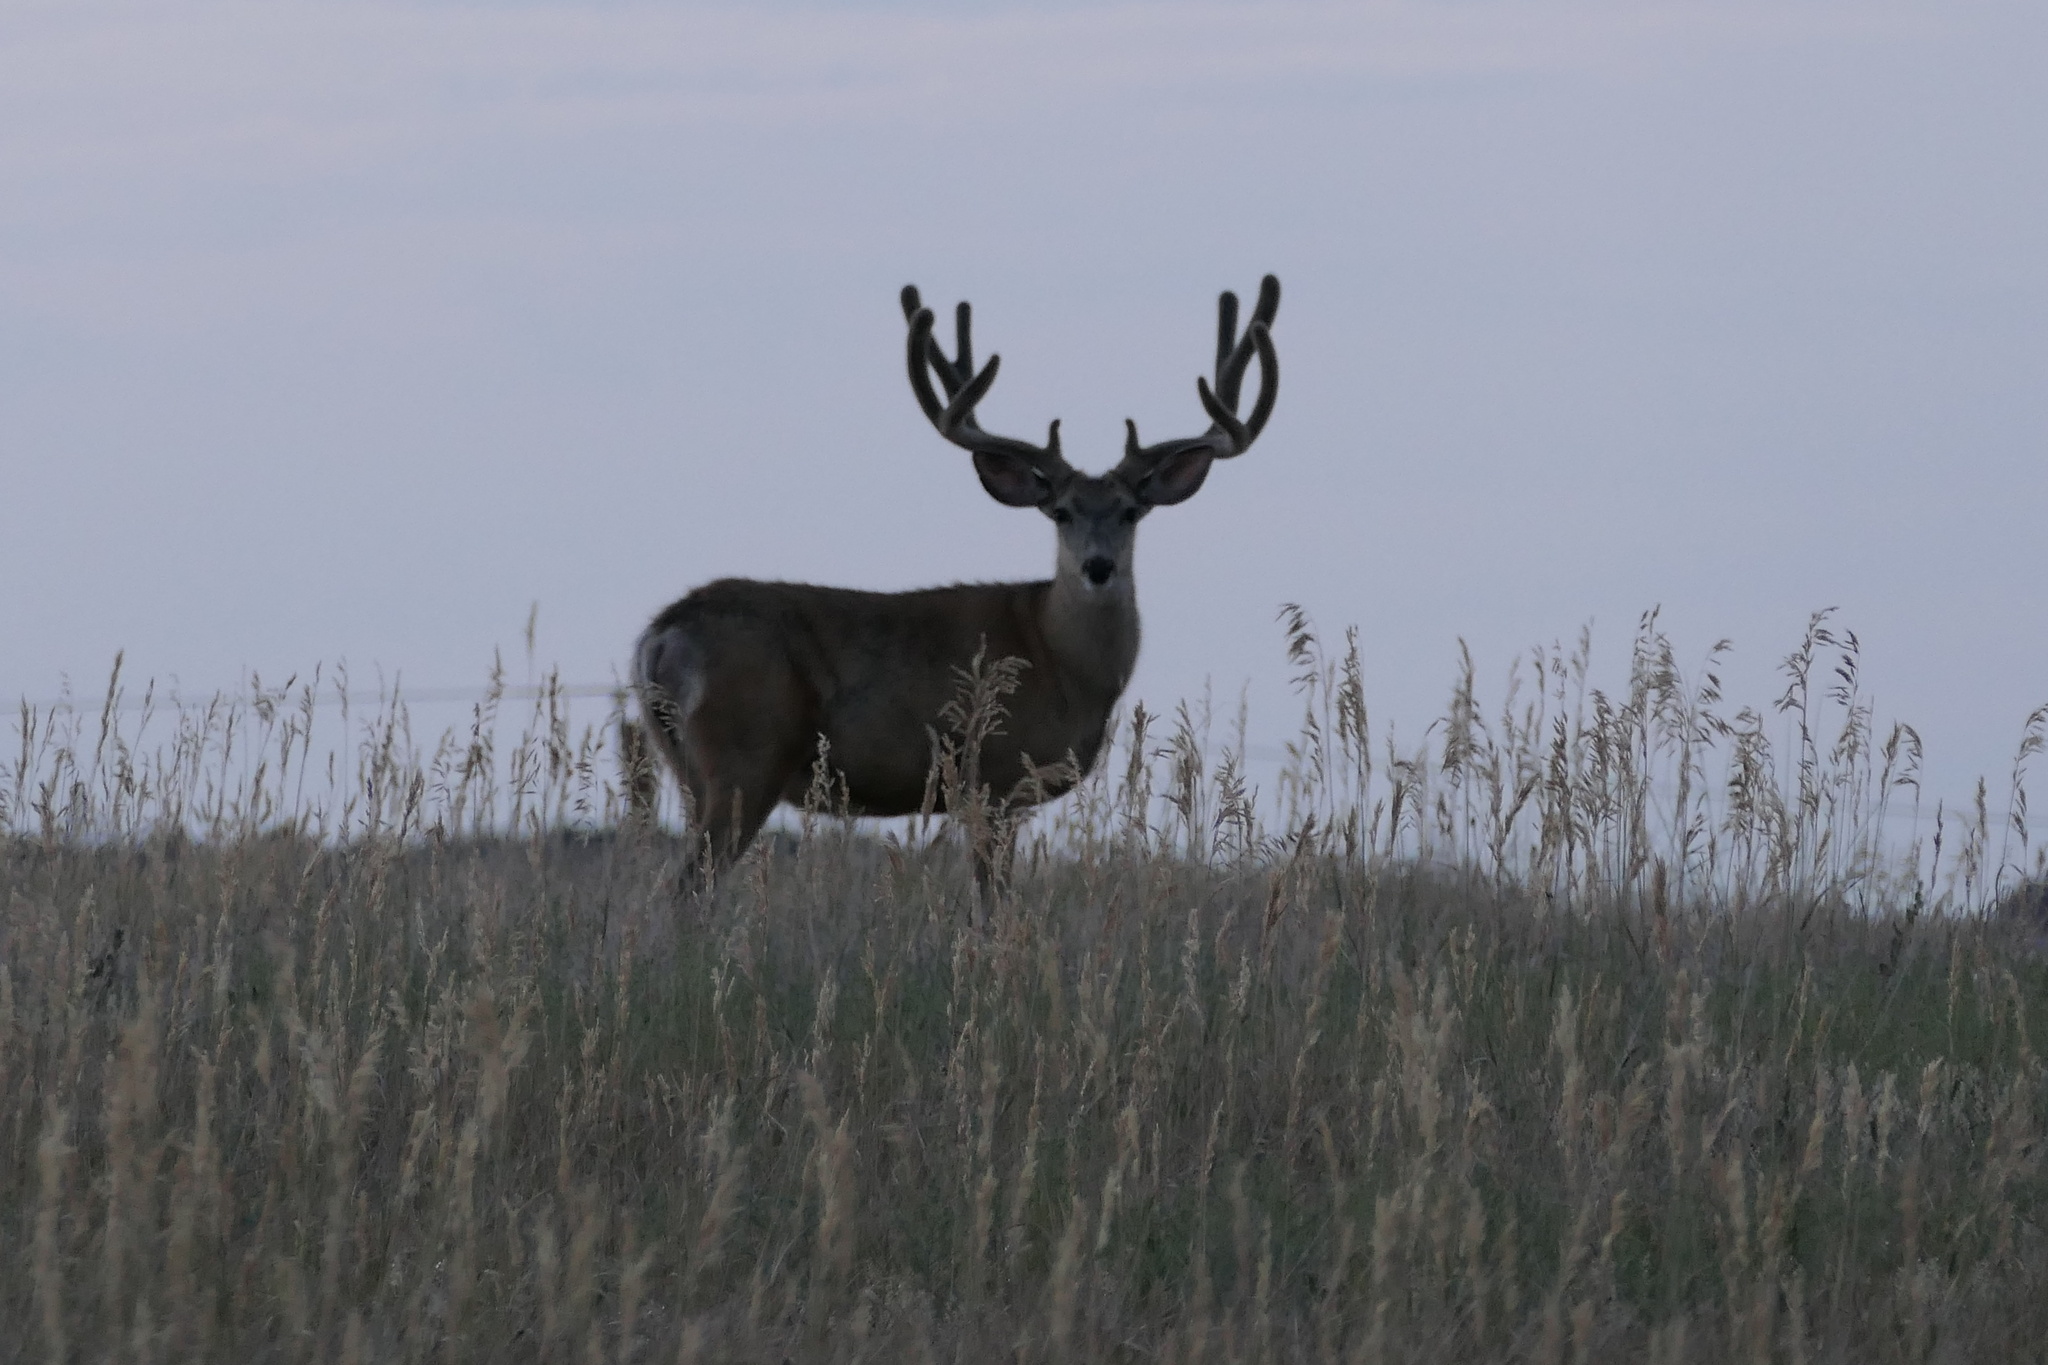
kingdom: Animalia
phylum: Chordata
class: Mammalia
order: Artiodactyla
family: Cervidae
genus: Odocoileus
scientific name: Odocoileus hemionus
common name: Mule deer
